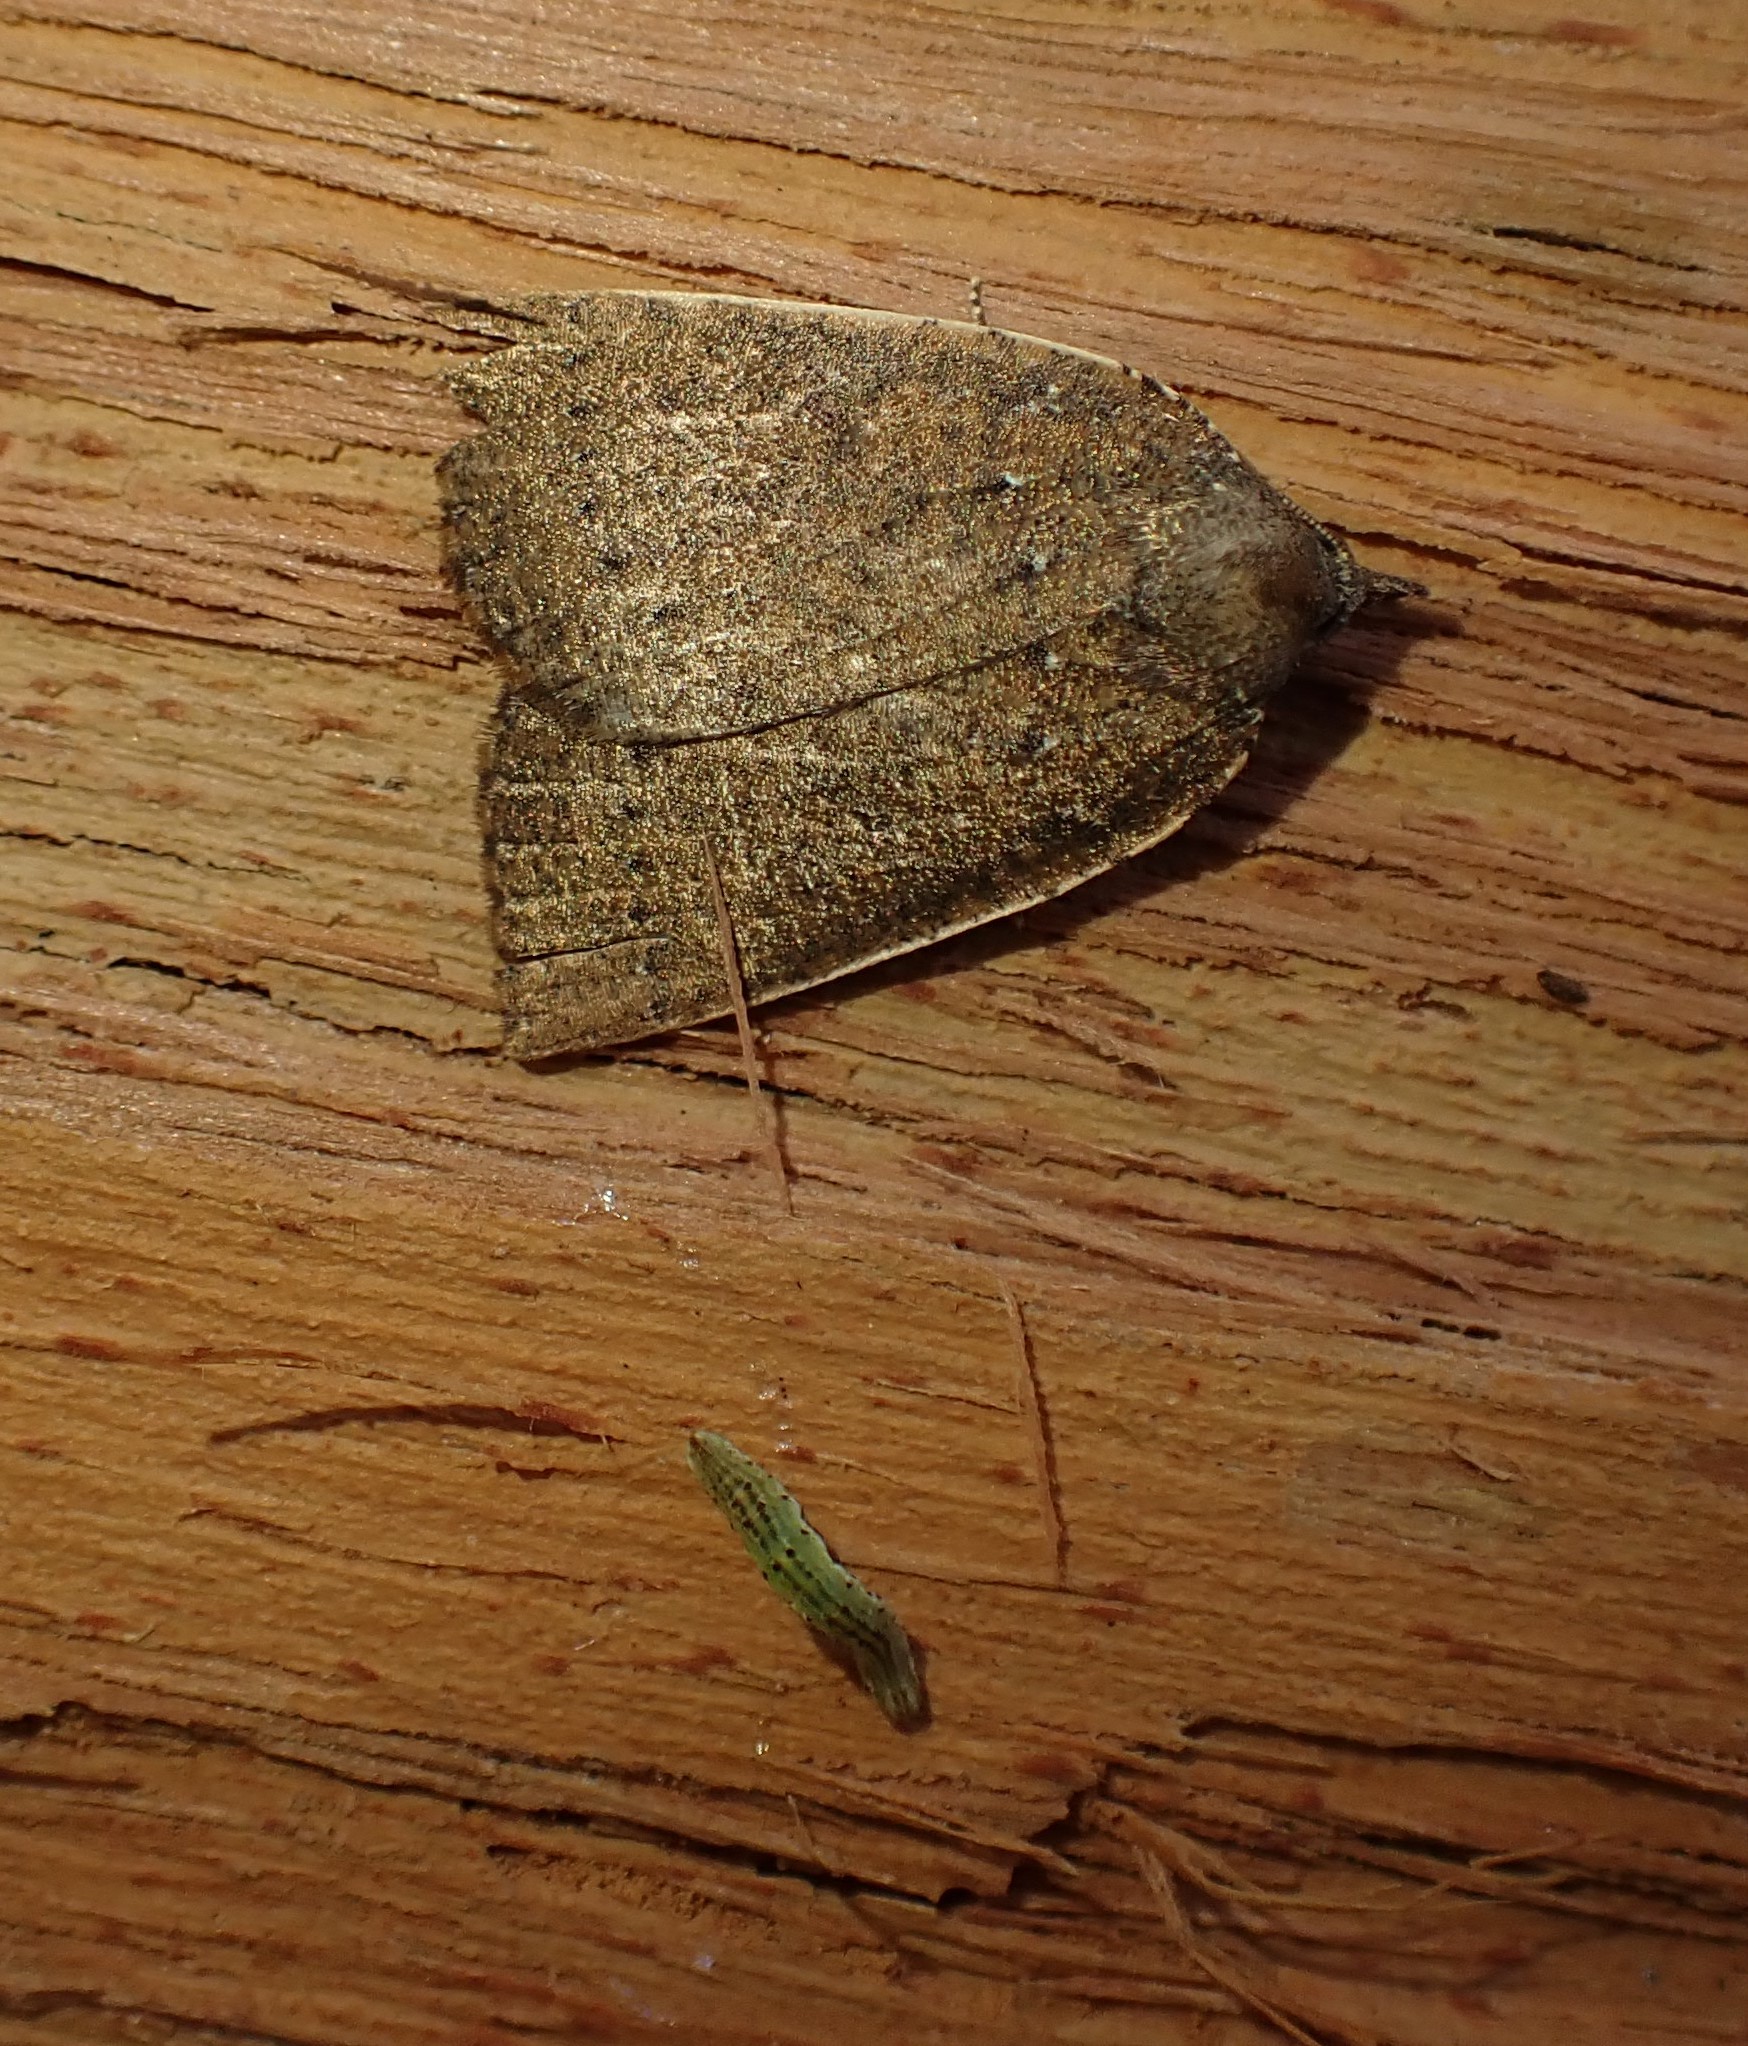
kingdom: Animalia
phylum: Arthropoda
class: Insecta
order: Lepidoptera
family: Geometridae
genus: Authaemon
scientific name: Authaemon stenonipha
